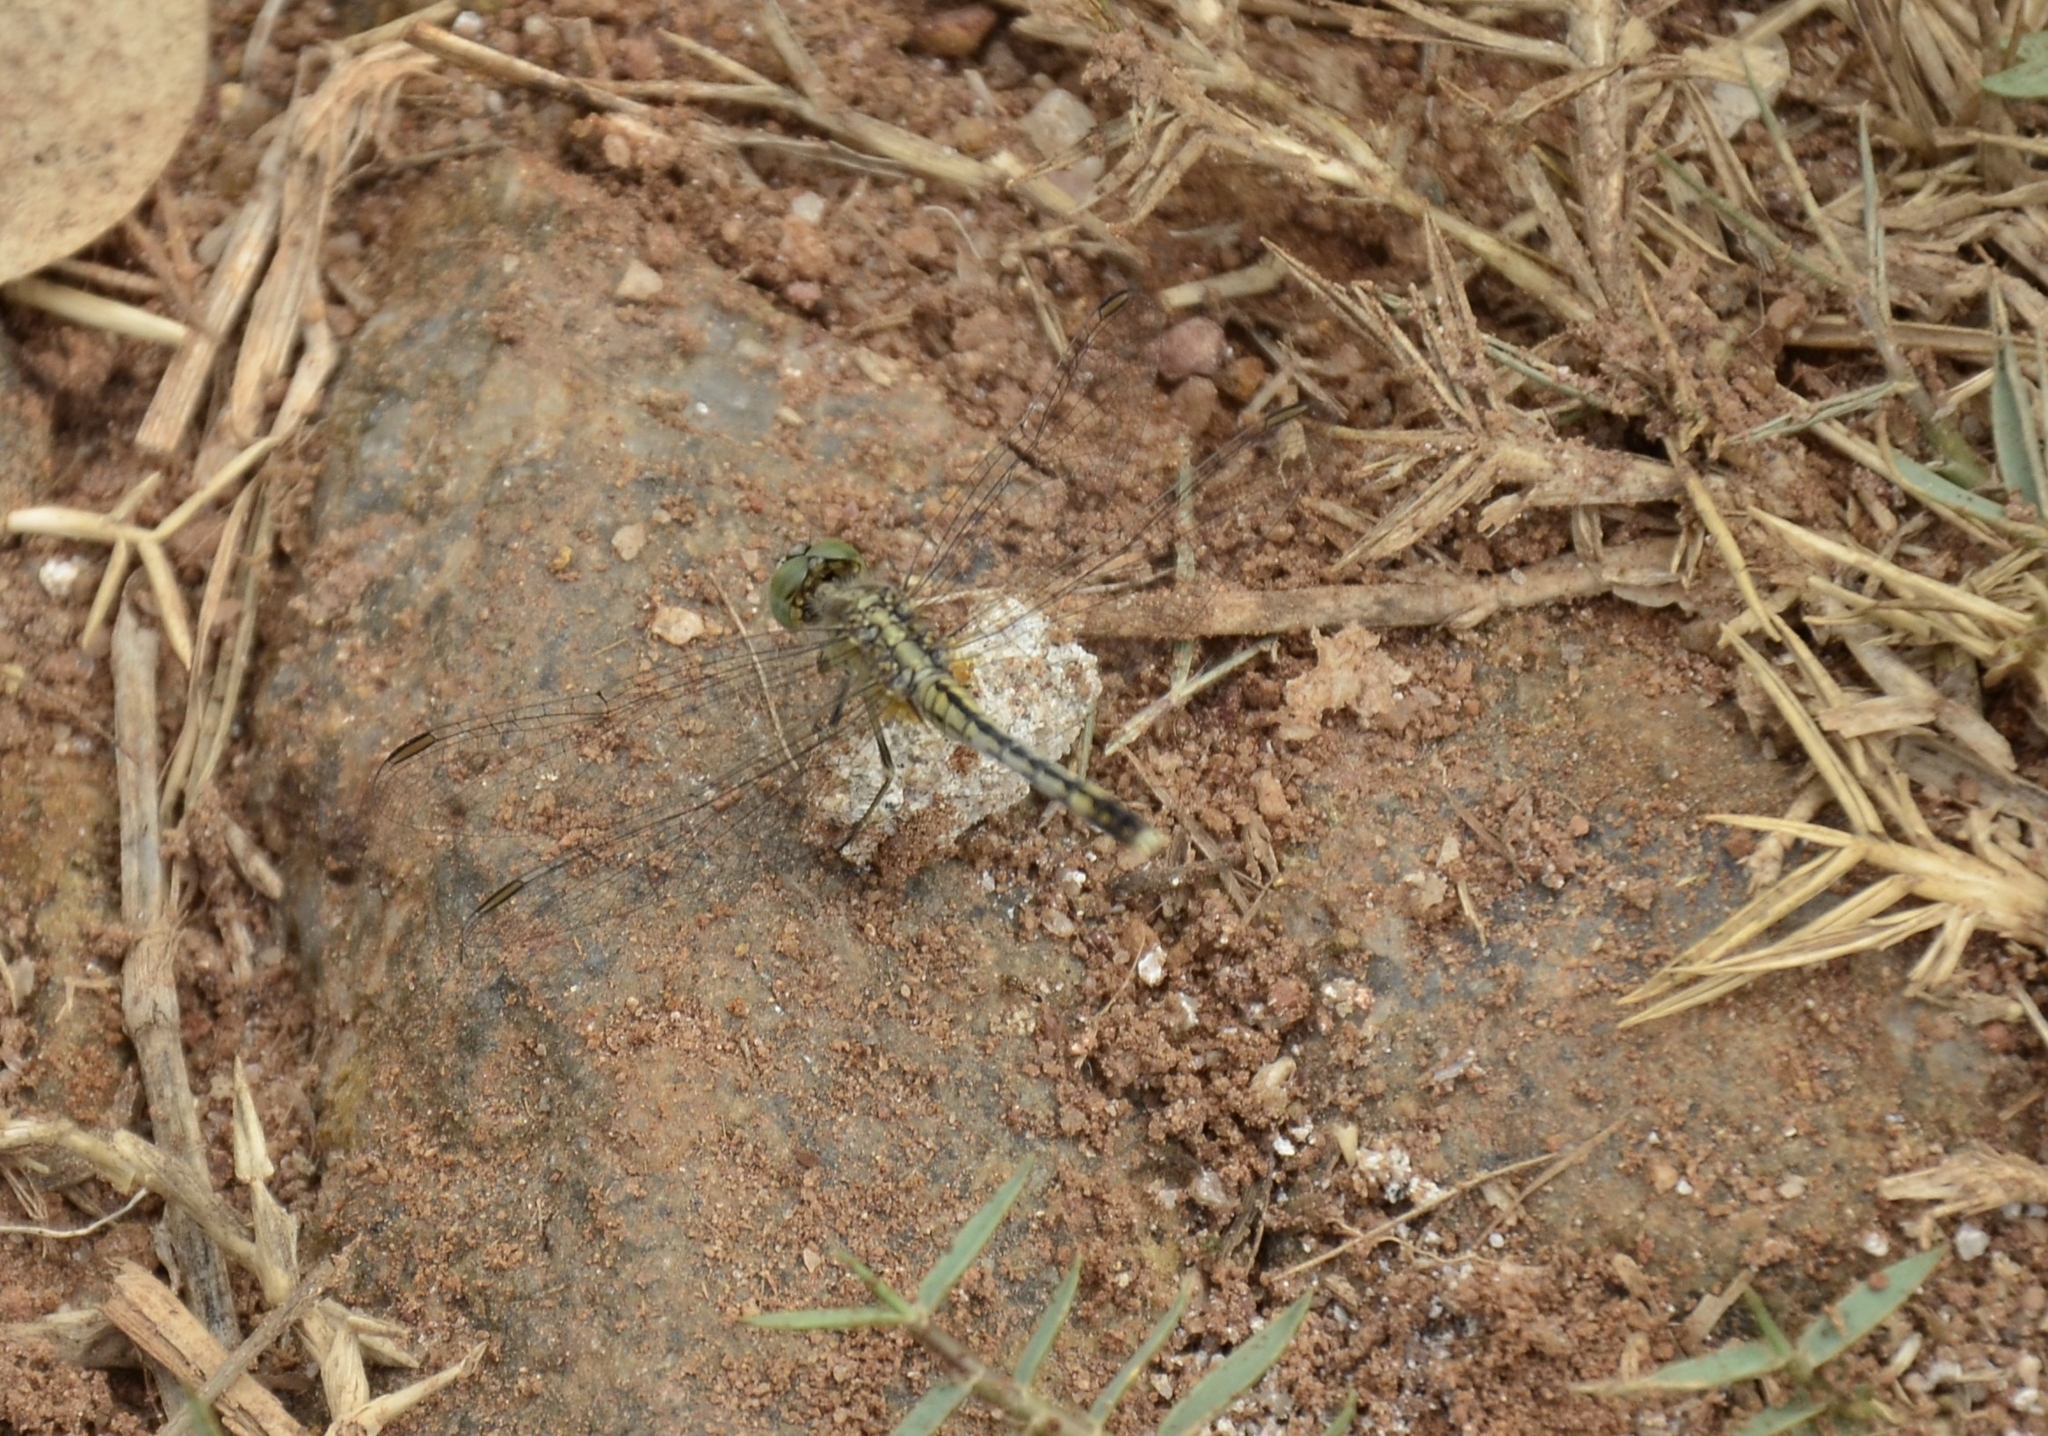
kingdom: Animalia
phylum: Arthropoda
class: Insecta
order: Odonata
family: Libellulidae
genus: Diplacodes
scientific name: Diplacodes trivialis
